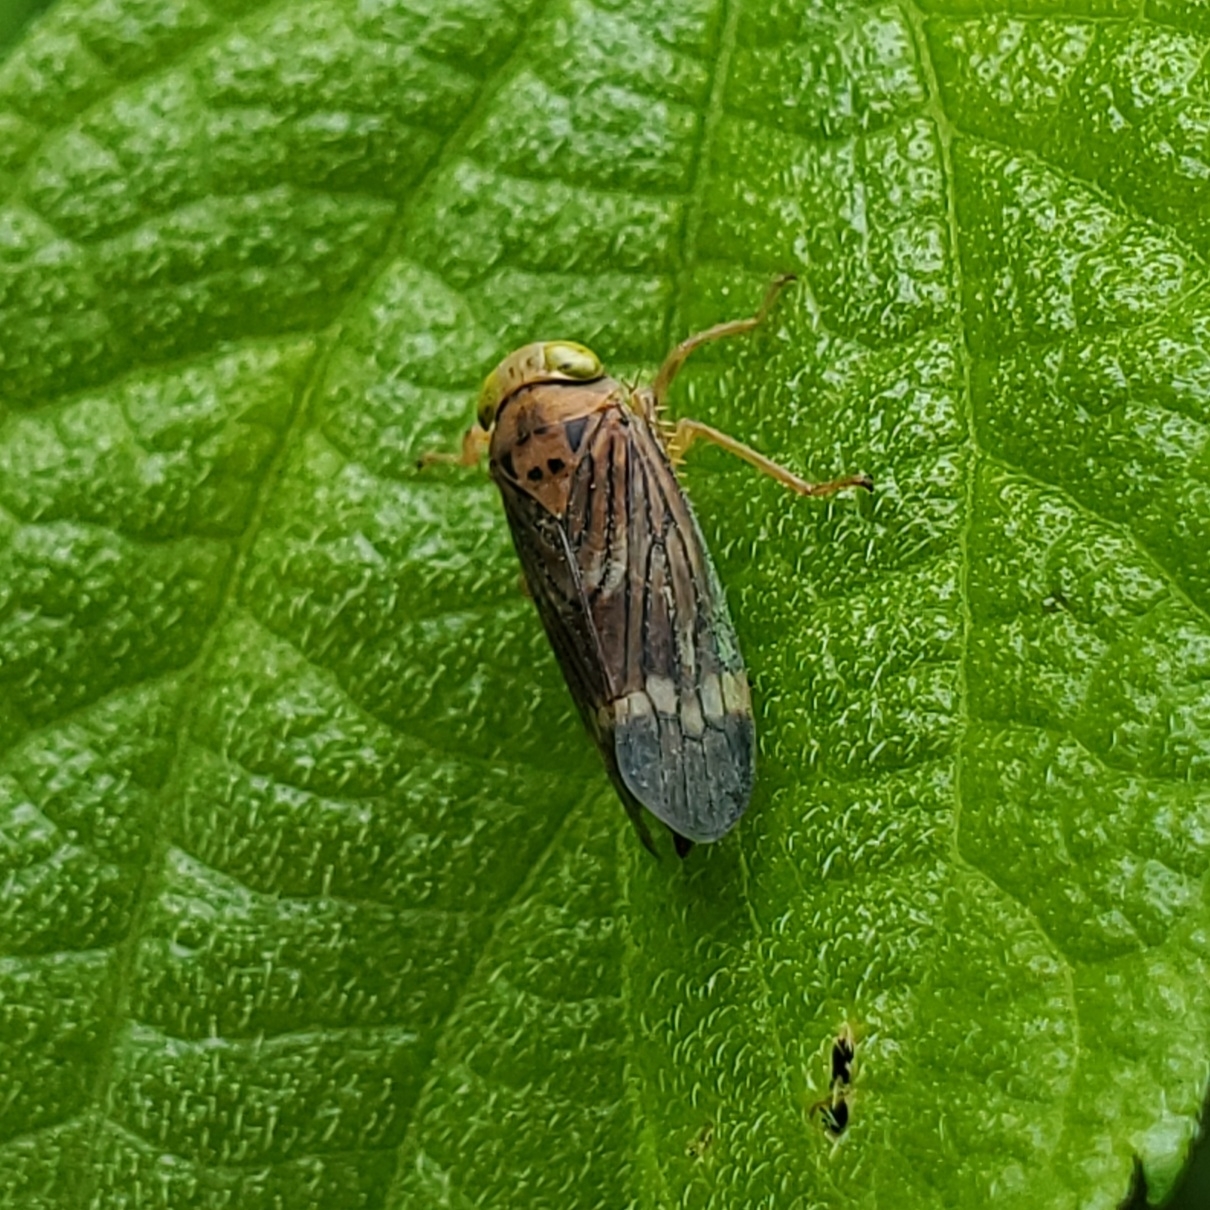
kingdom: Animalia
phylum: Arthropoda
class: Insecta
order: Hemiptera
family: Cicadellidae
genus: Jikradia
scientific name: Jikradia olitoria
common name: Coppery leafhopper
